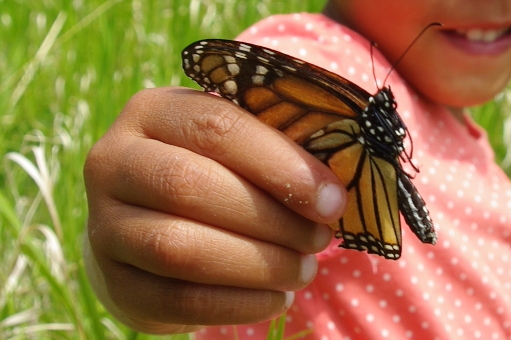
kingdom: Animalia
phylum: Arthropoda
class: Insecta
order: Lepidoptera
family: Nymphalidae
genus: Danaus
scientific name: Danaus plexippus
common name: Monarch
